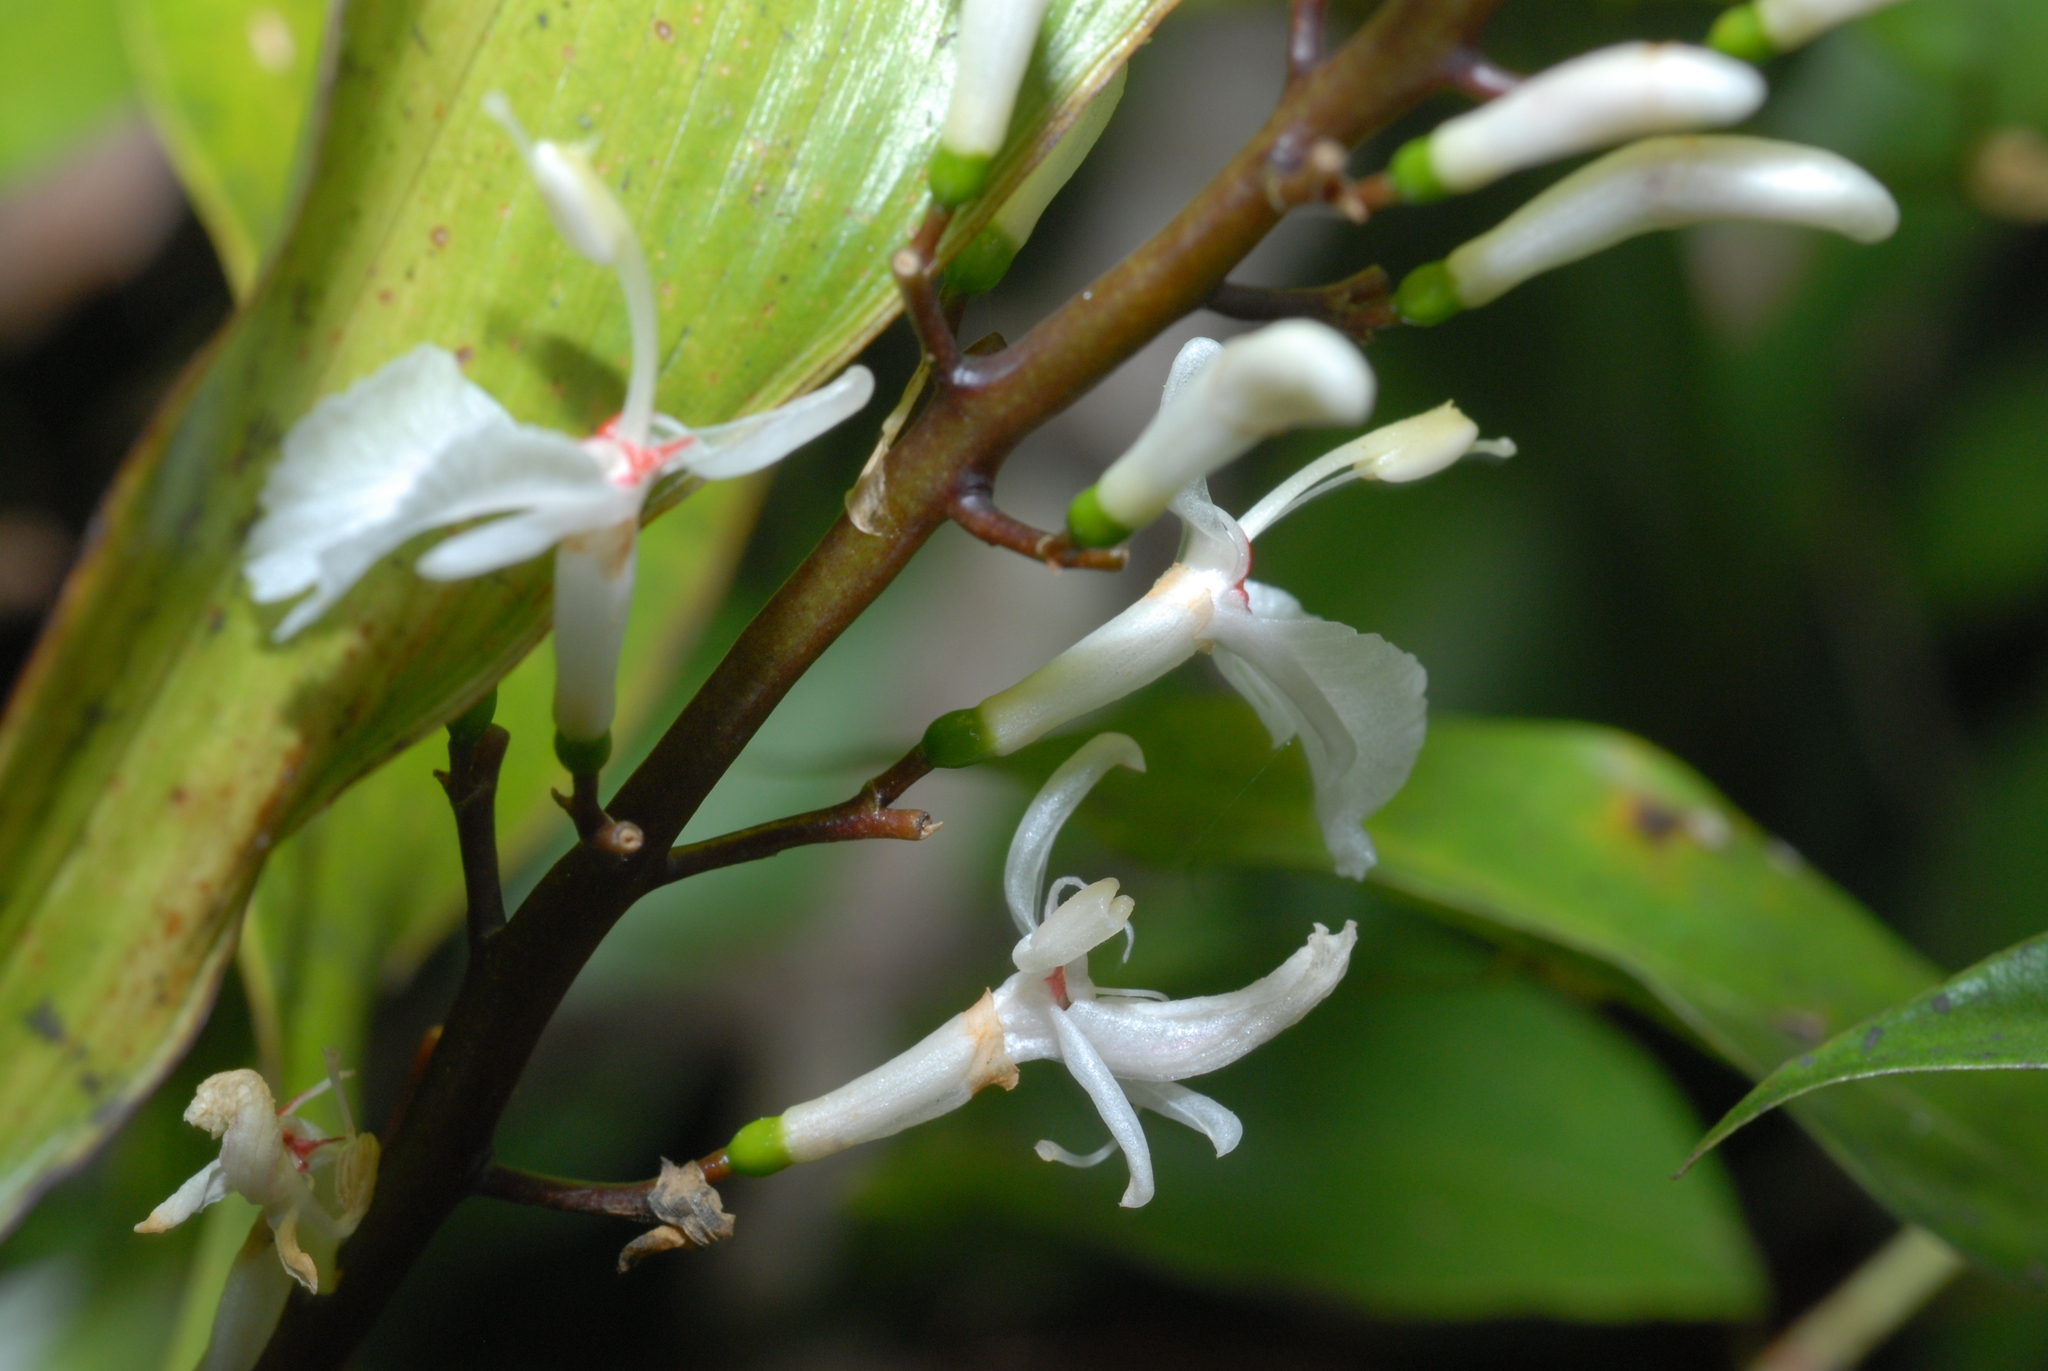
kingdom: Plantae
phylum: Tracheophyta
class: Liliopsida
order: Zingiberales
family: Zingiberaceae
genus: Alpinia
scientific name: Alpinia intermedia
